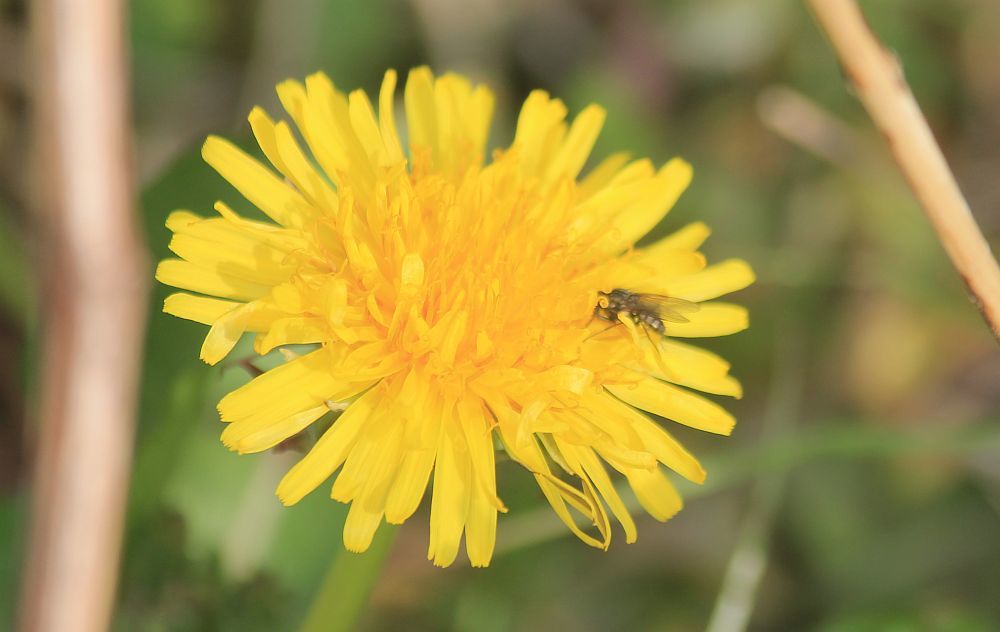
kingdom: Plantae
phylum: Tracheophyta
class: Magnoliopsida
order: Asterales
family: Asteraceae
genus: Taraxacum
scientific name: Taraxacum officinale
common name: Common dandelion
